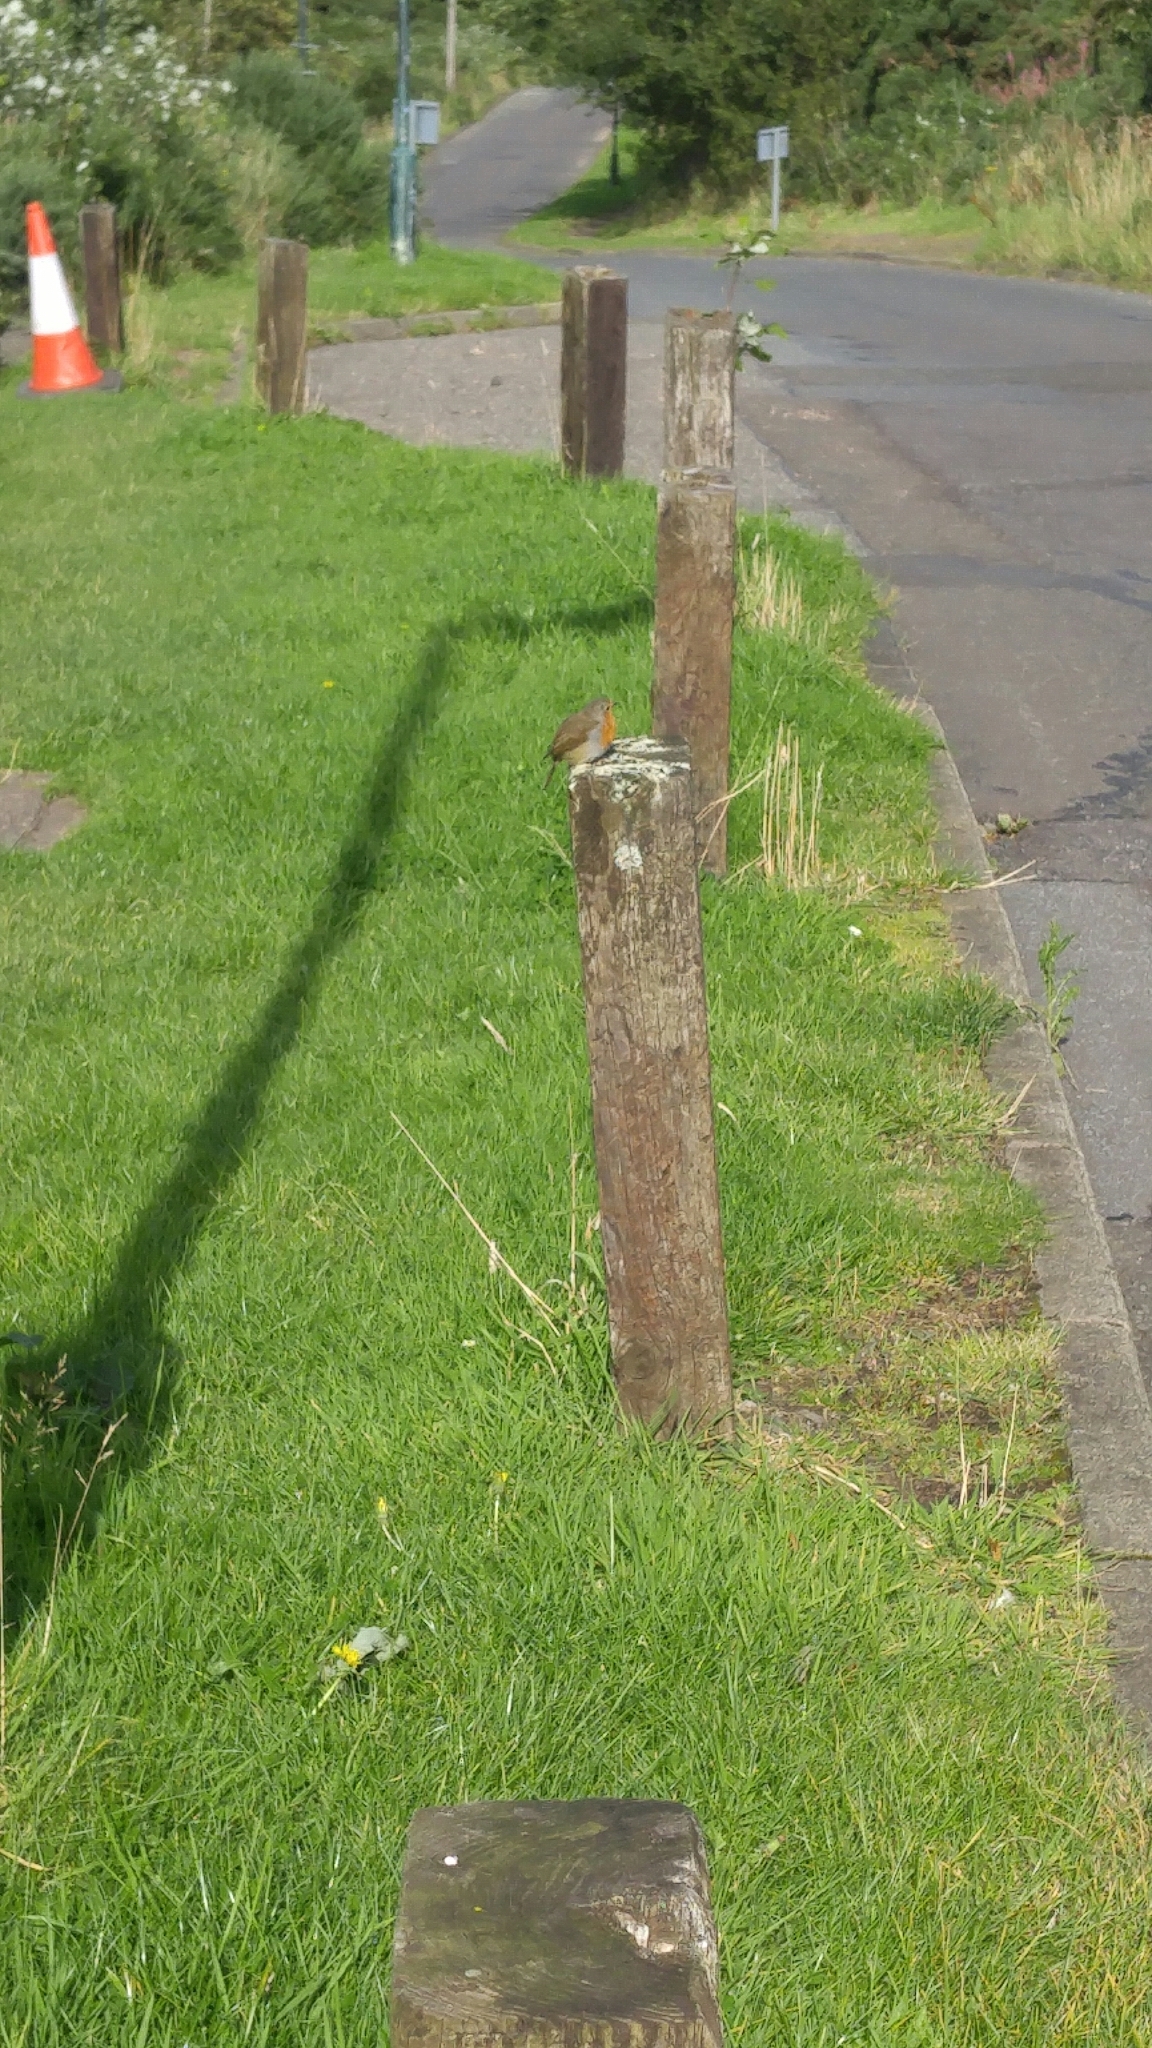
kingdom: Animalia
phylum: Chordata
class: Aves
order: Passeriformes
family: Muscicapidae
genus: Erithacus
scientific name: Erithacus rubecula
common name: European robin
